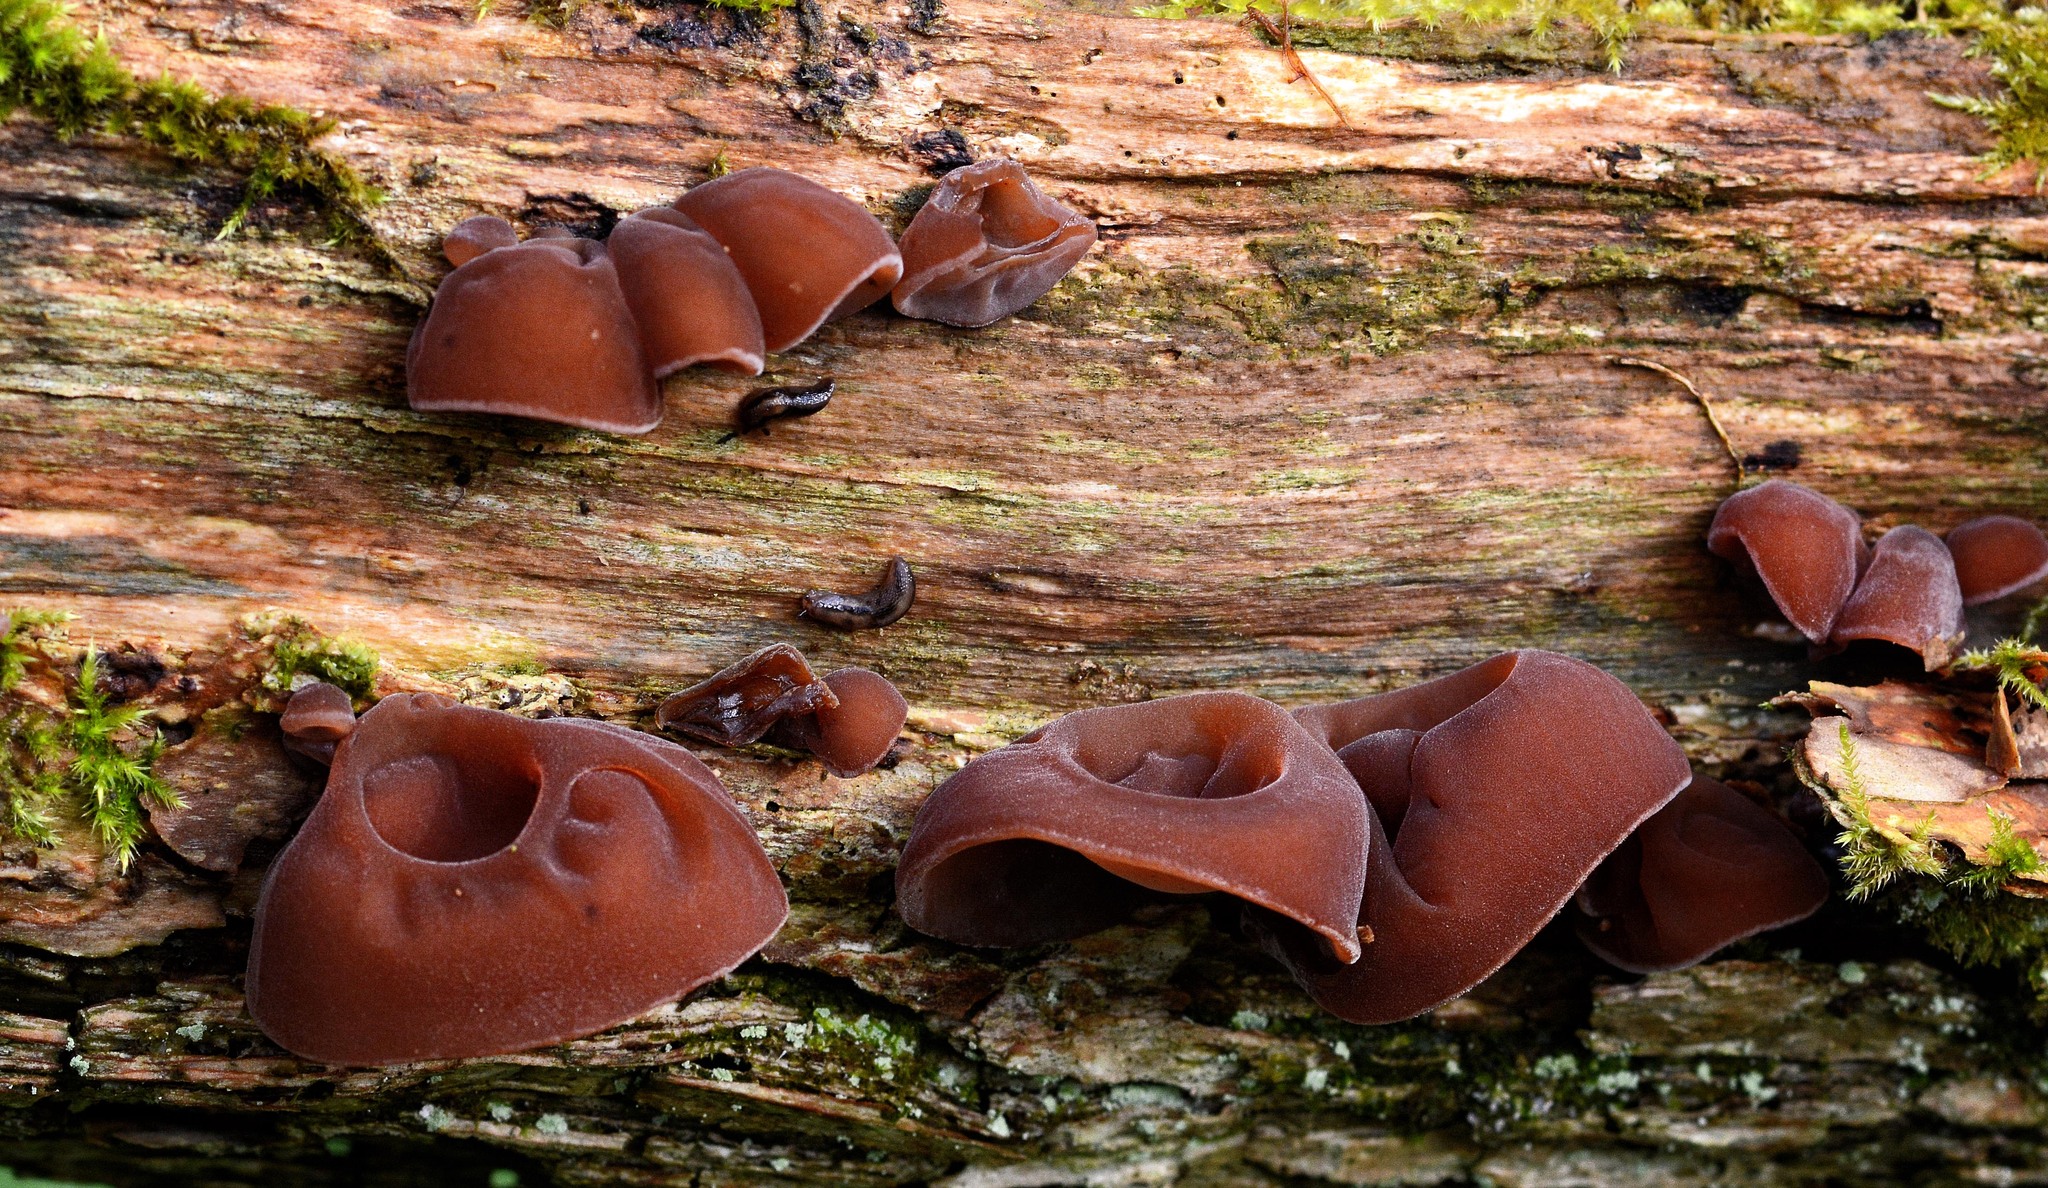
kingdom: Fungi
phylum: Basidiomycota
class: Agaricomycetes
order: Auriculariales
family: Auriculariaceae
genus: Auricularia
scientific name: Auricularia auricula-judae
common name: Jelly ear
